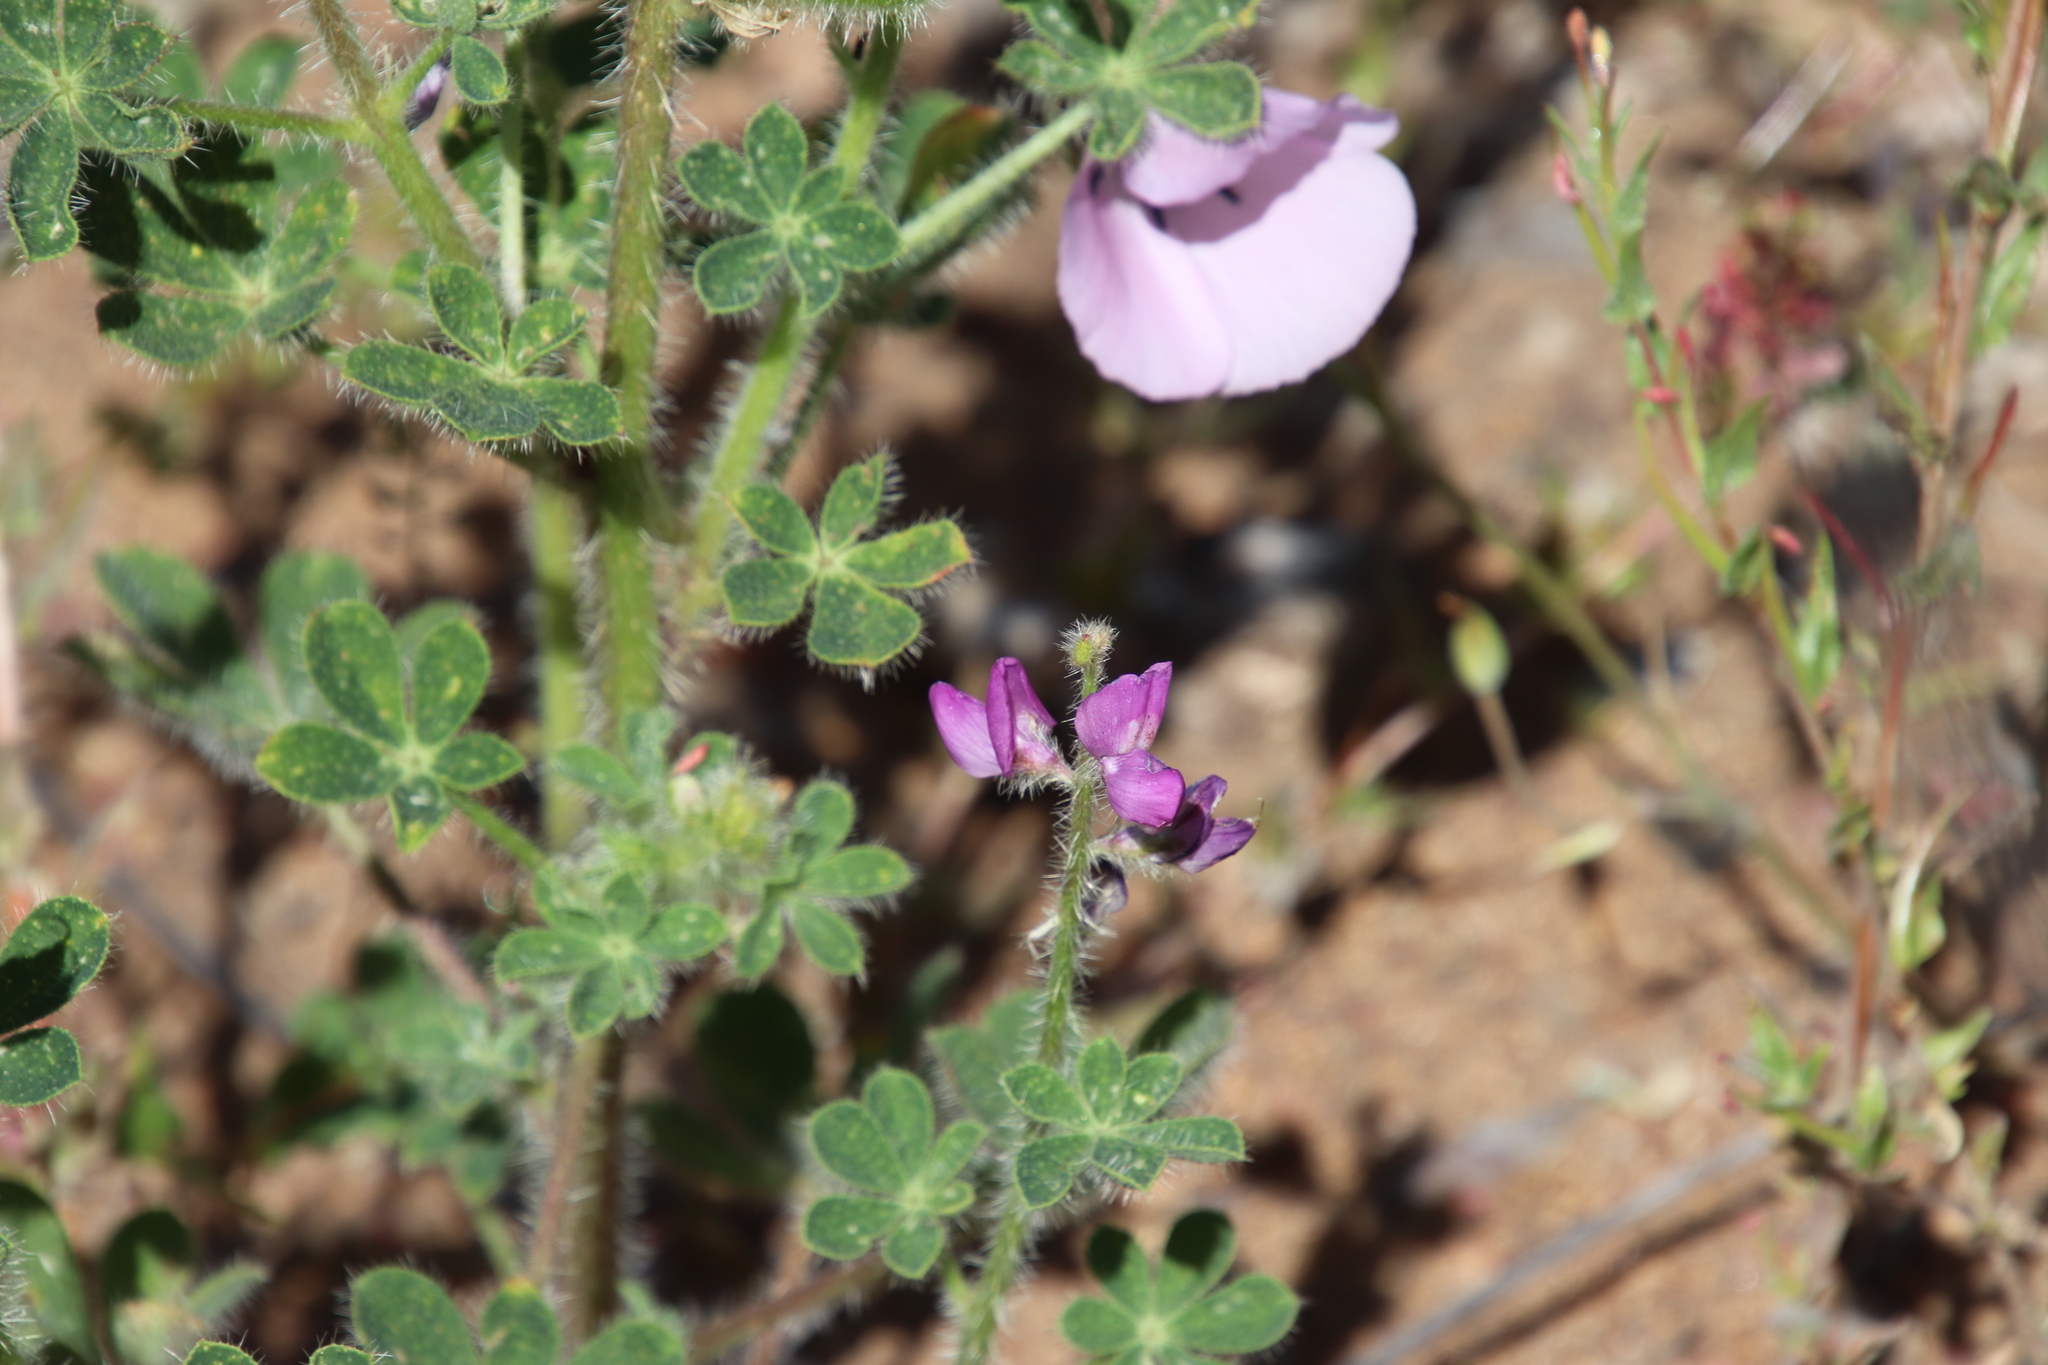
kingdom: Plantae
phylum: Tracheophyta
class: Magnoliopsida
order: Fabales
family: Fabaceae
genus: Lupinus
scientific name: Lupinus hirsutissimus
